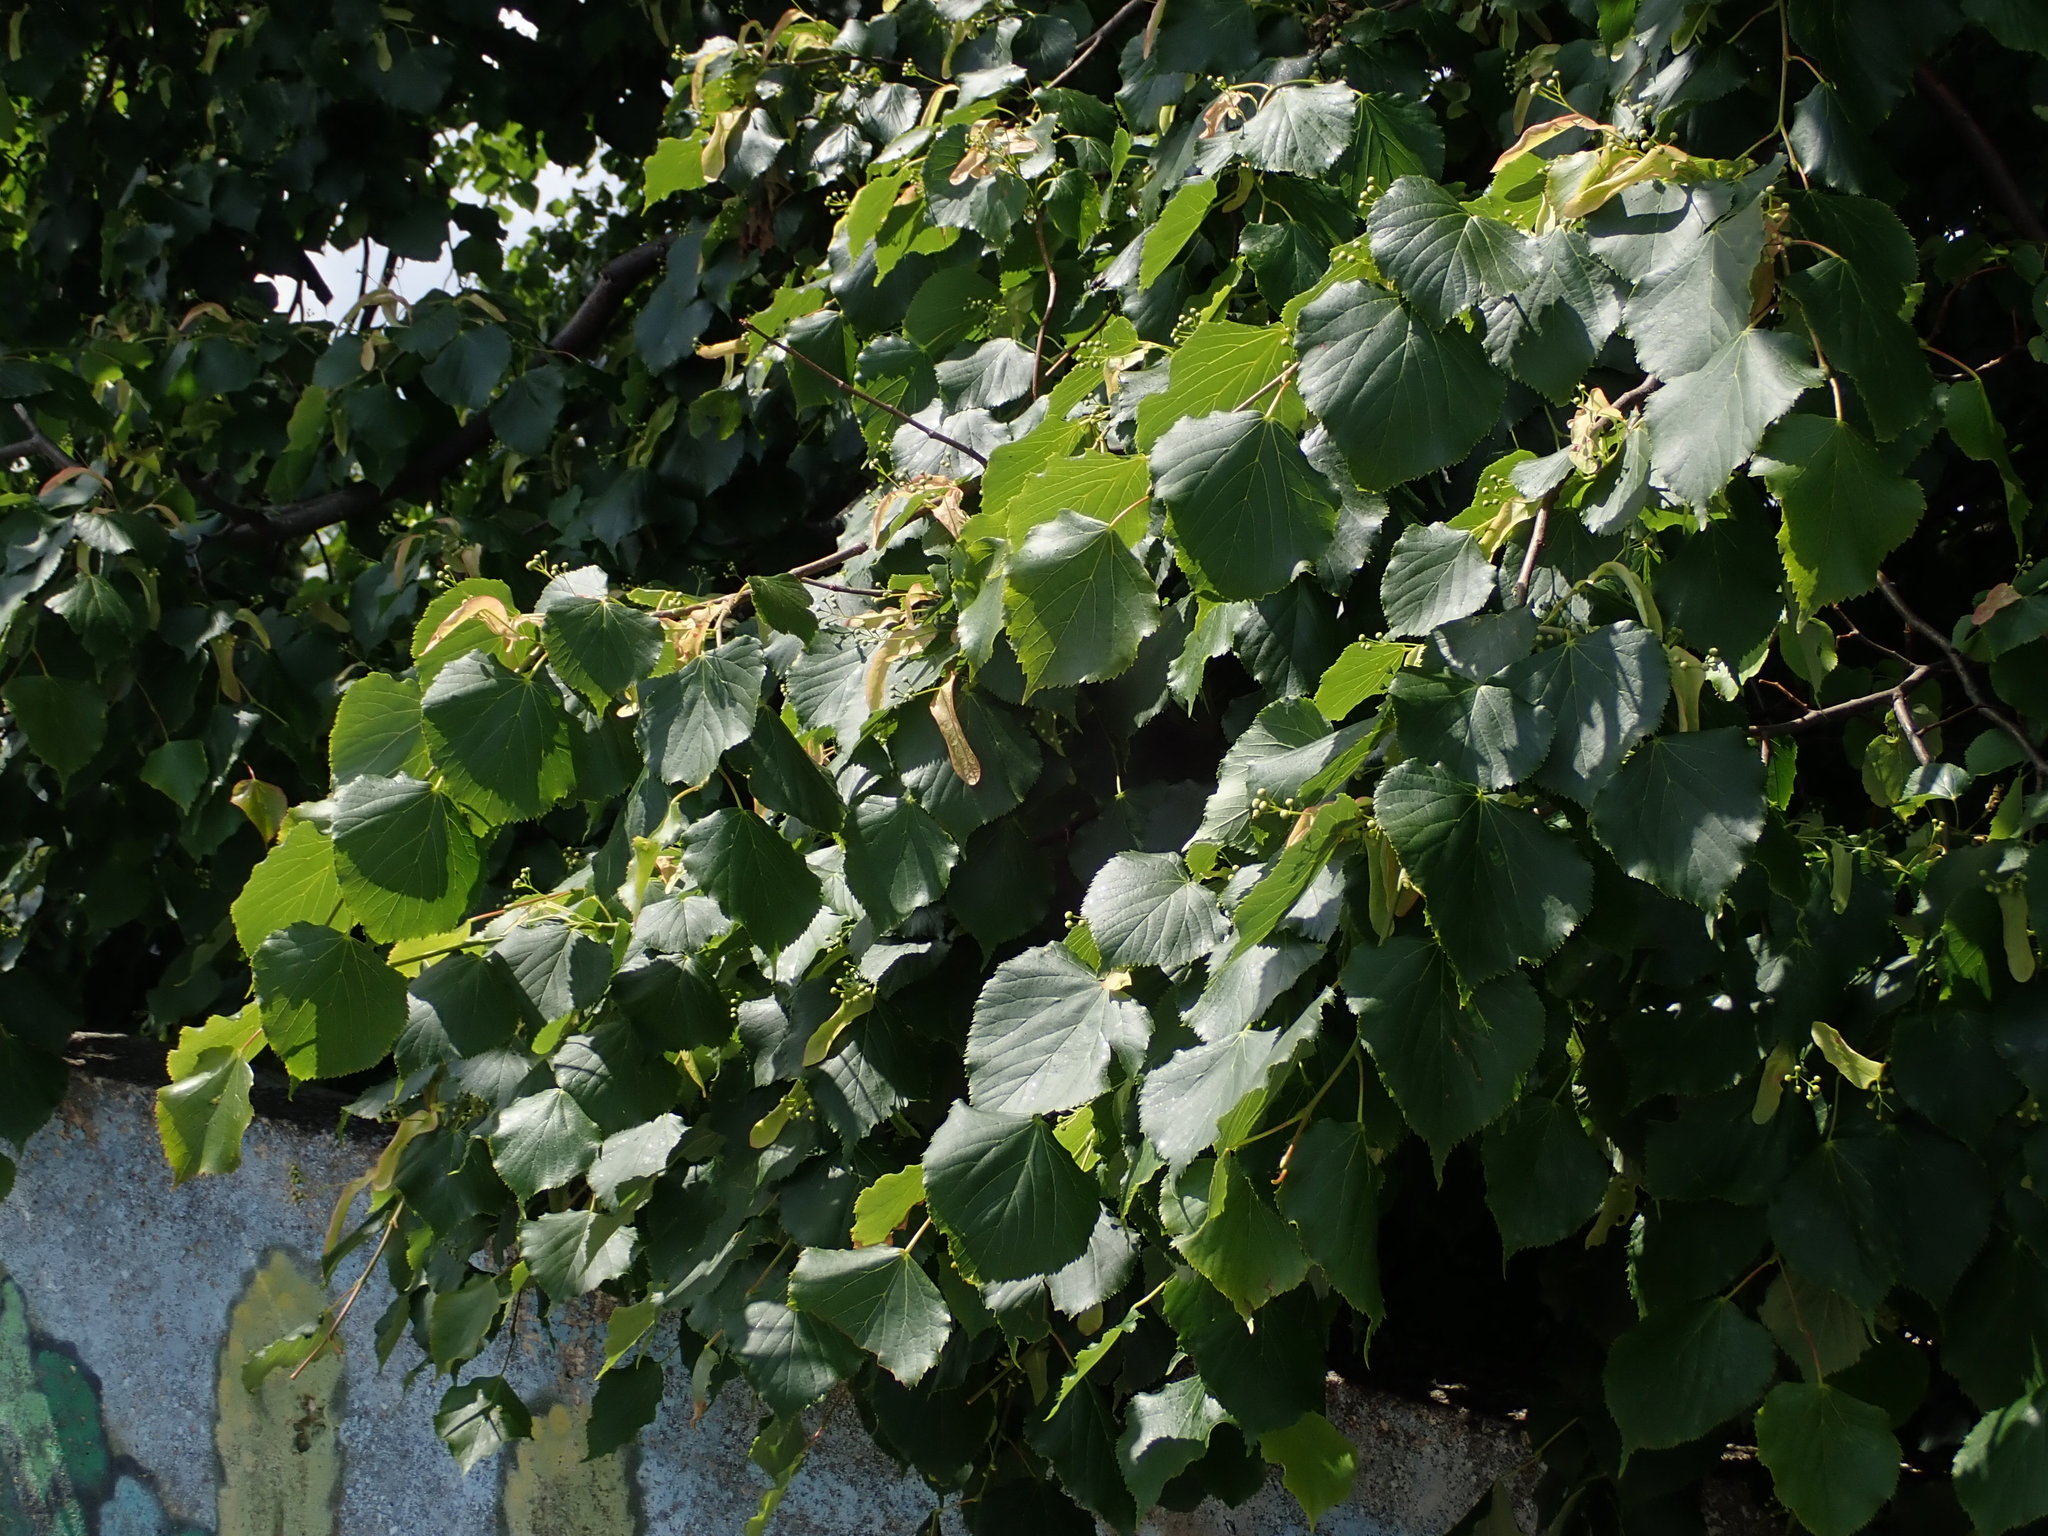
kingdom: Plantae
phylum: Tracheophyta
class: Magnoliopsida
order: Malvales
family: Malvaceae
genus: Tilia
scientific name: Tilia cordata
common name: Small-leaved lime
